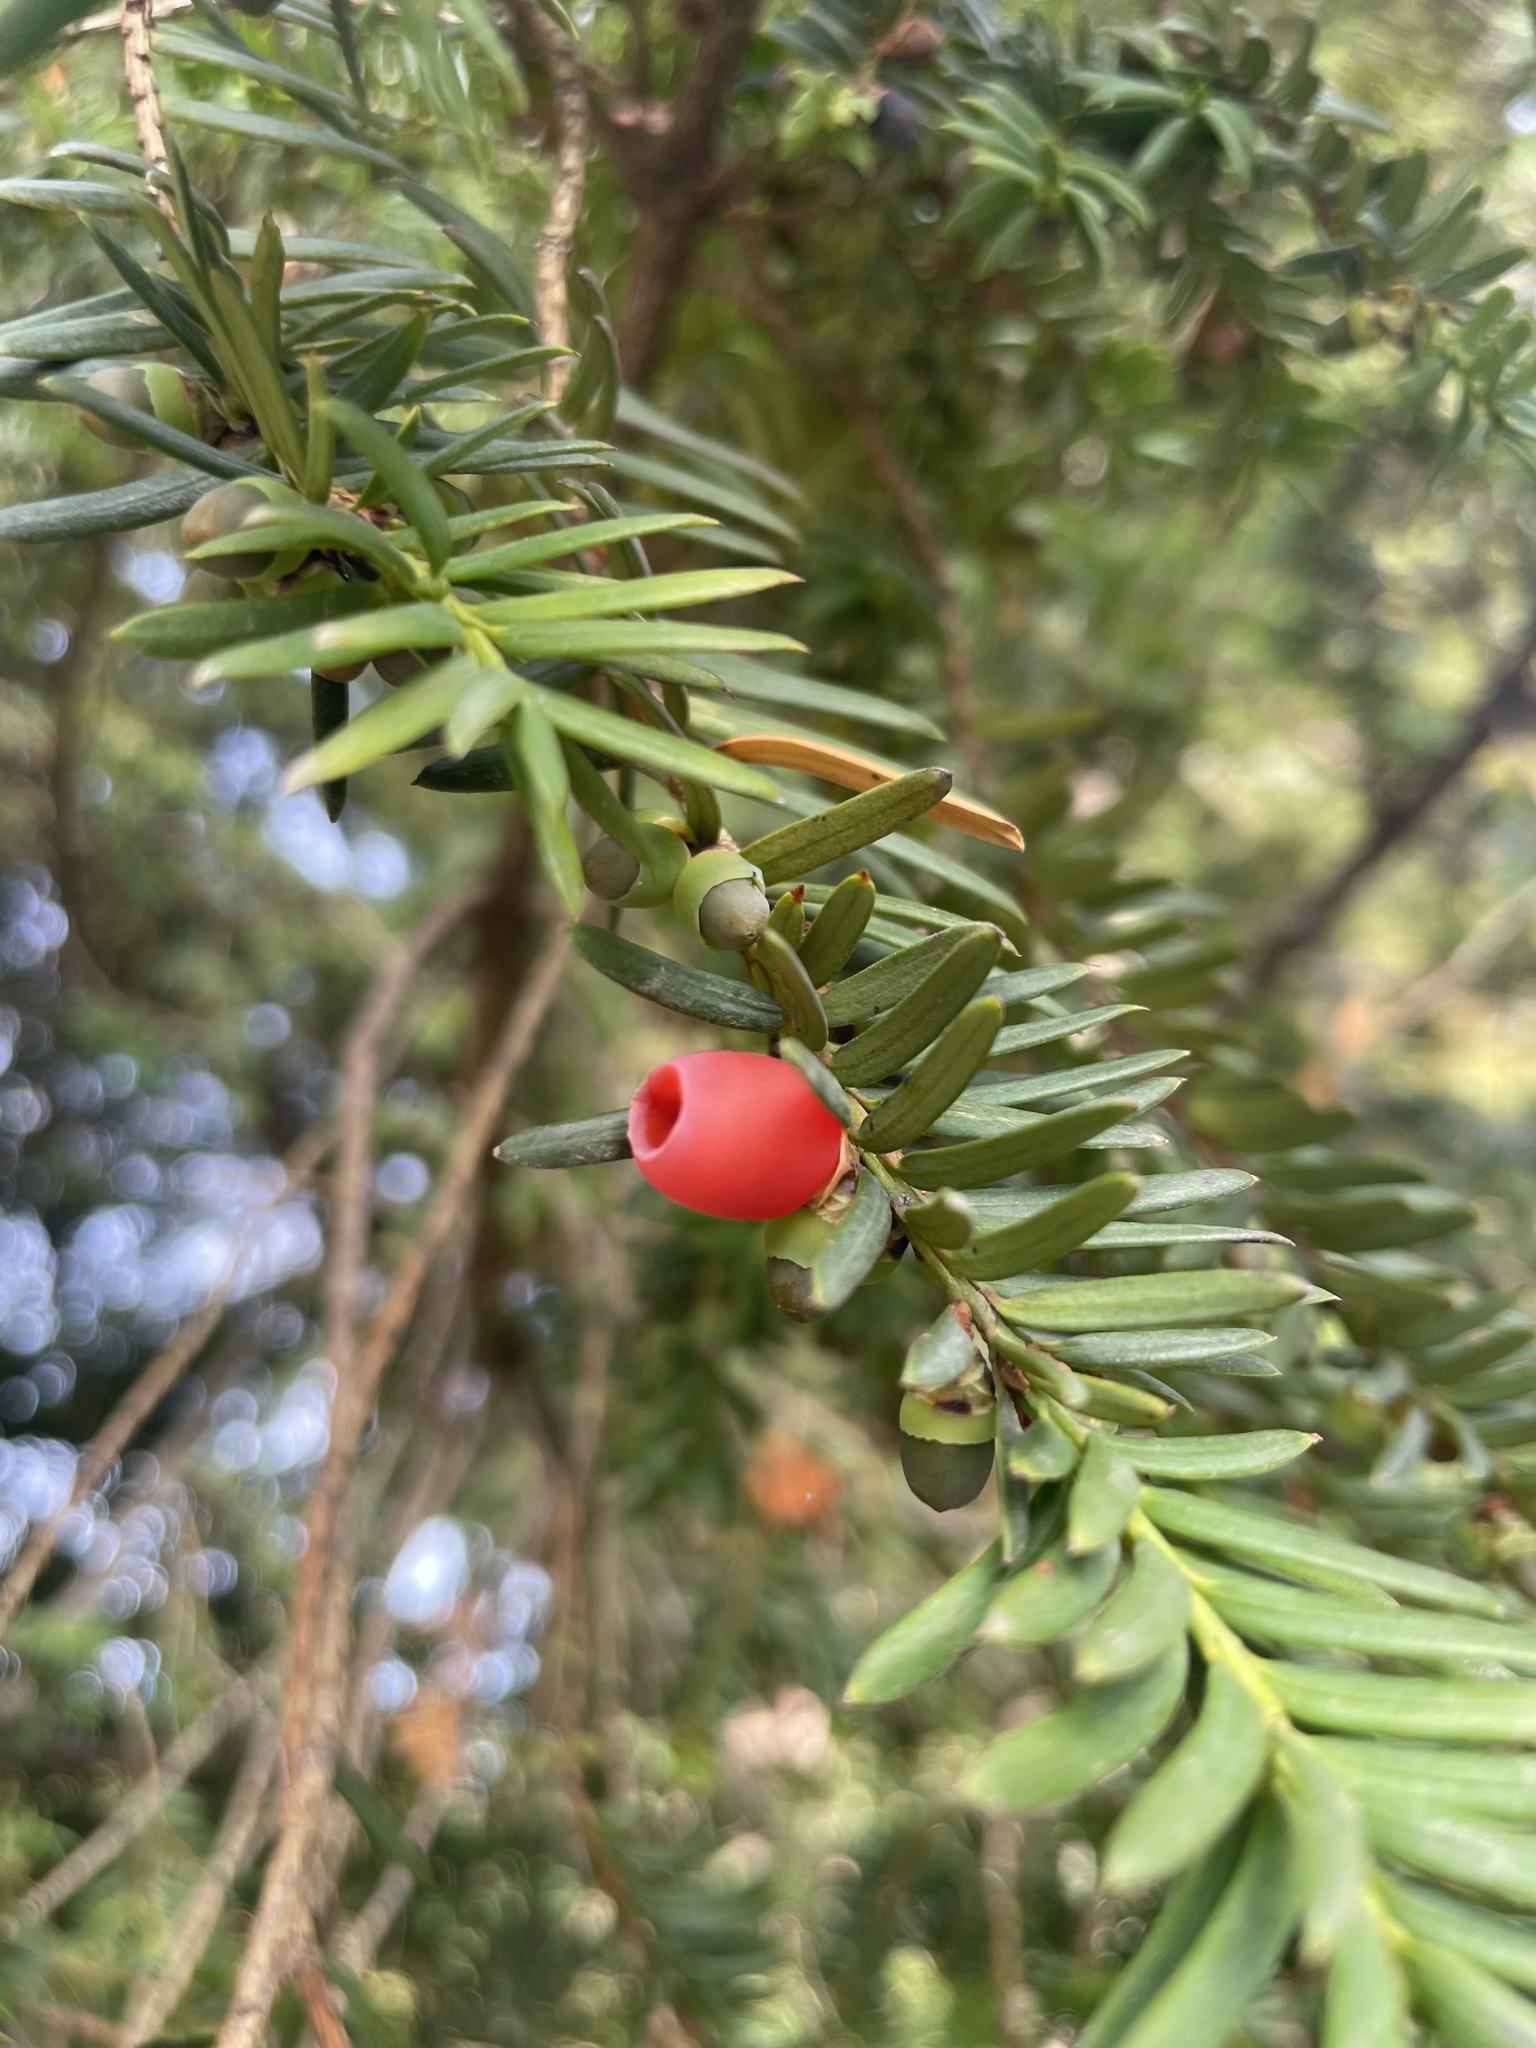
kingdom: Plantae
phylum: Tracheophyta
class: Pinopsida
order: Pinales
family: Taxaceae
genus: Taxus
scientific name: Taxus baccata
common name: Yew
